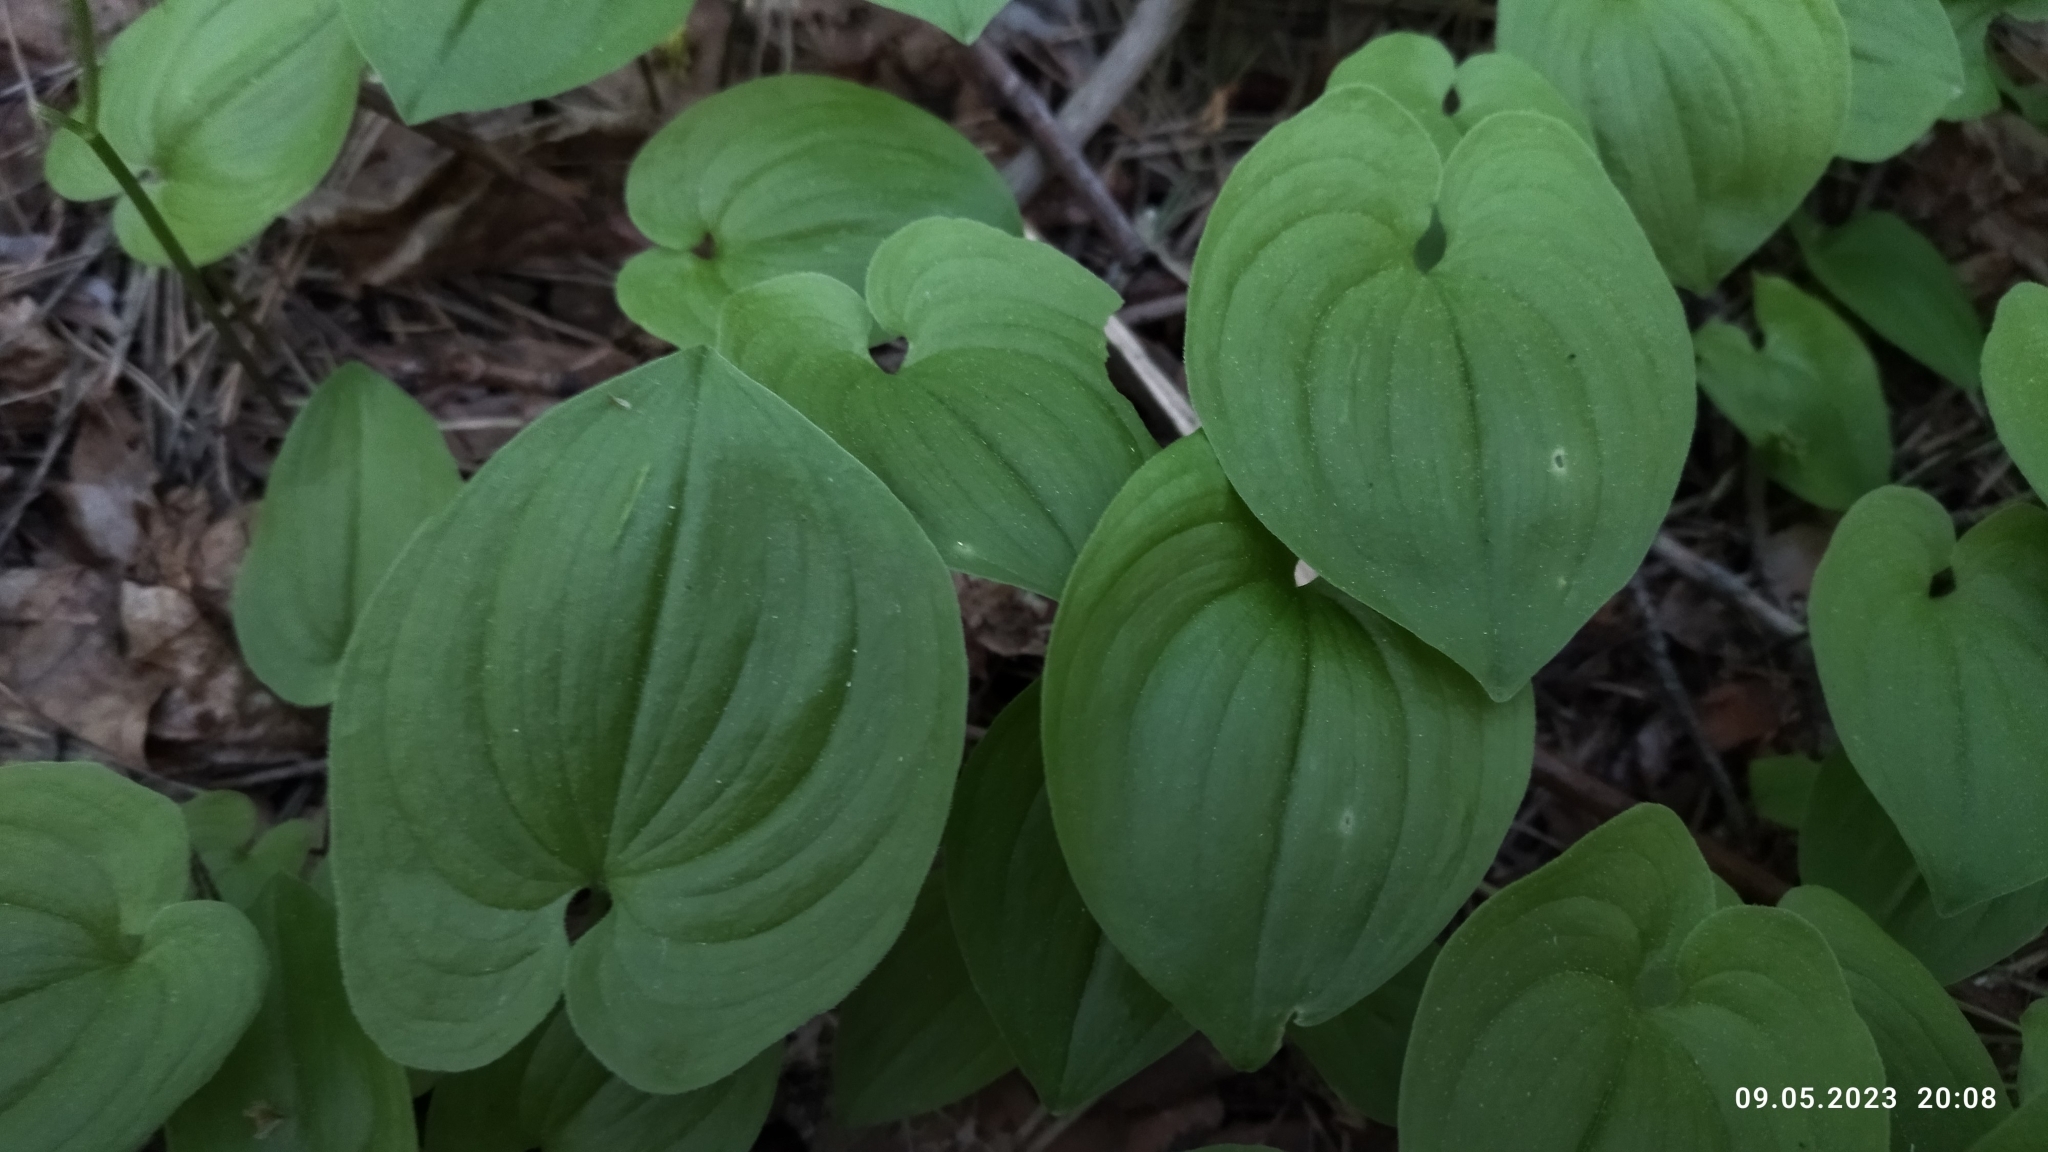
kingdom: Plantae
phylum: Tracheophyta
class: Liliopsida
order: Asparagales
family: Asparagaceae
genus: Maianthemum
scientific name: Maianthemum bifolium
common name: May lily
